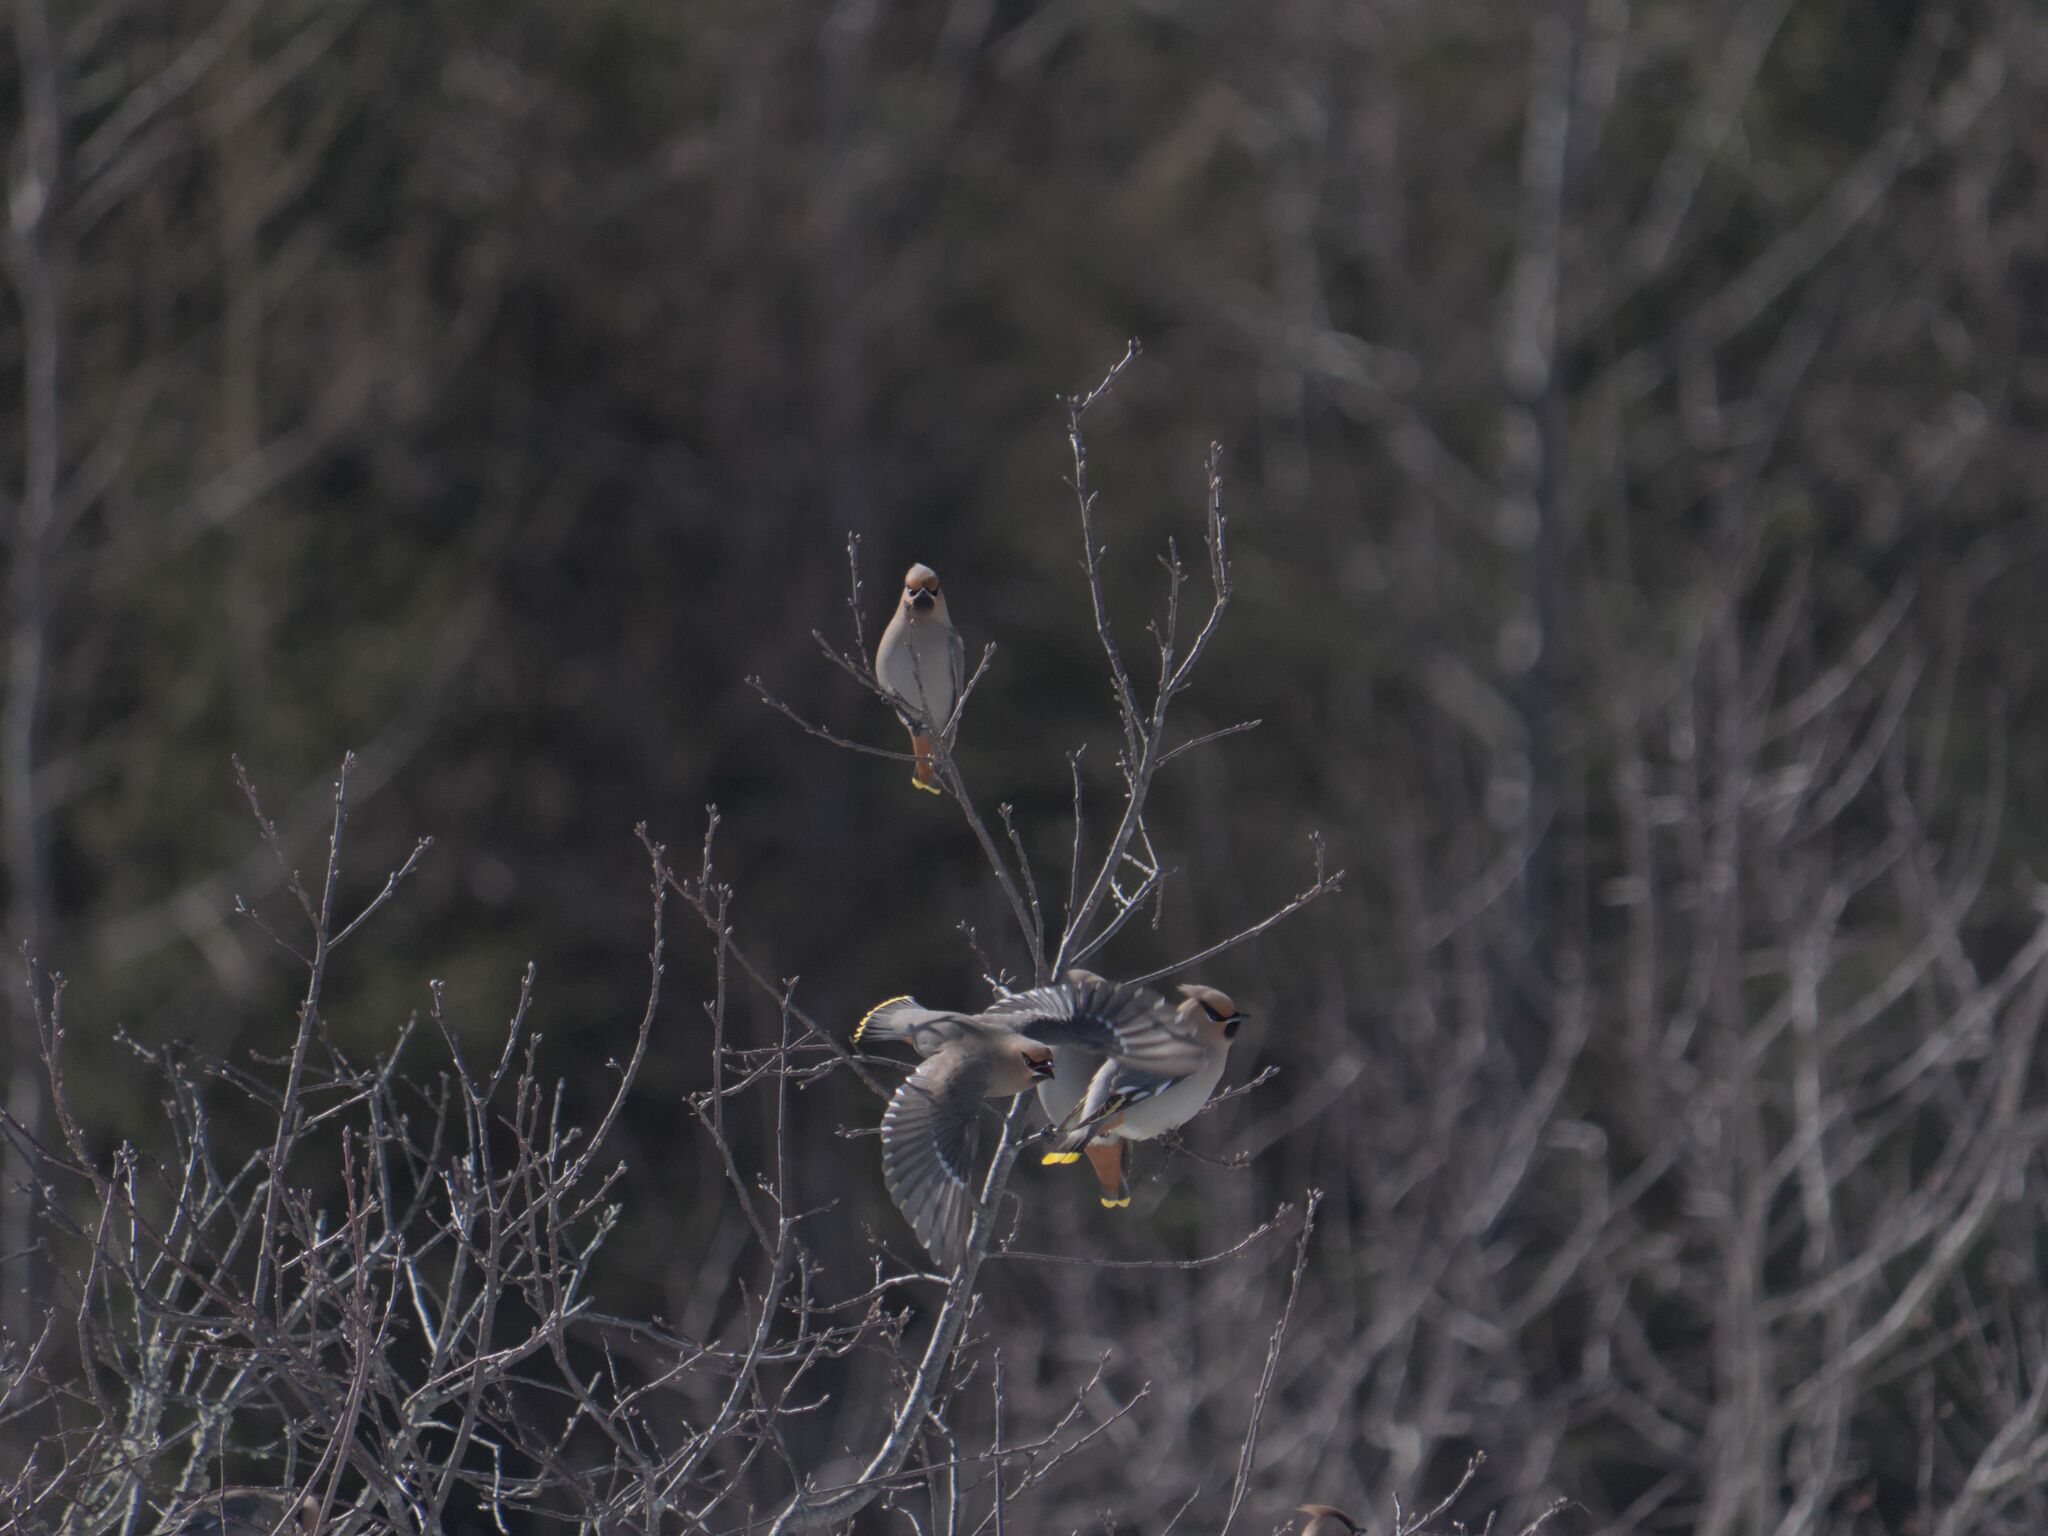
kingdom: Animalia
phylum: Chordata
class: Aves
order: Passeriformes
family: Bombycillidae
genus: Bombycilla
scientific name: Bombycilla garrulus
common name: Bohemian waxwing
